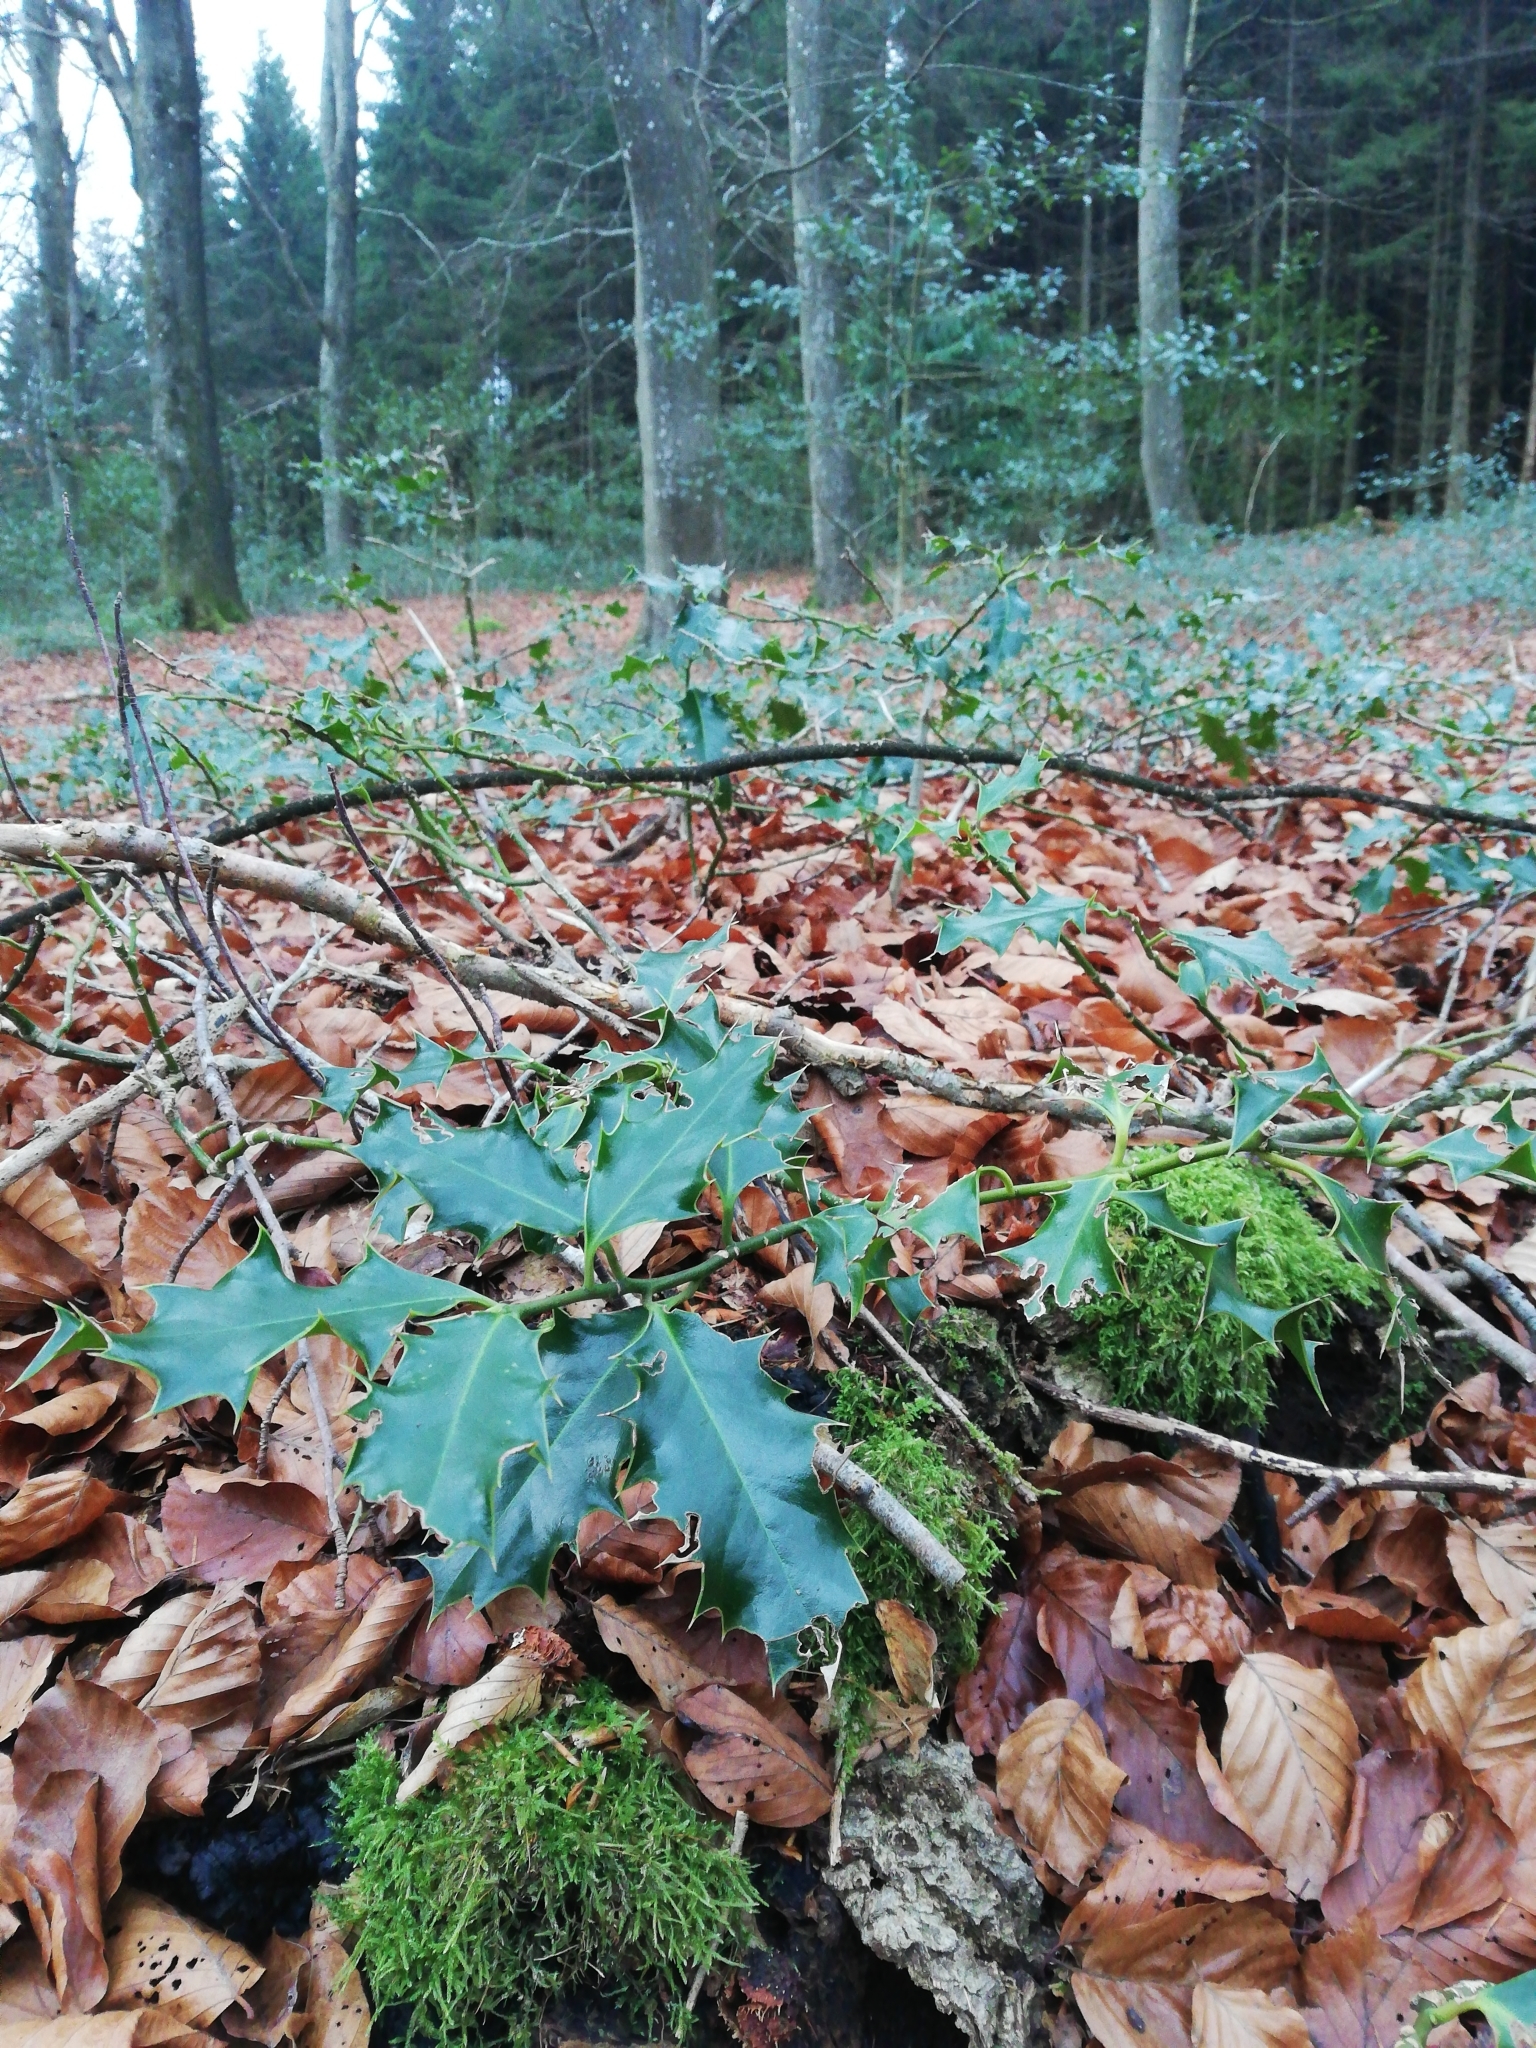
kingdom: Plantae
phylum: Tracheophyta
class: Magnoliopsida
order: Aquifoliales
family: Aquifoliaceae
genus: Ilex
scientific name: Ilex aquifolium
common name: English holly
